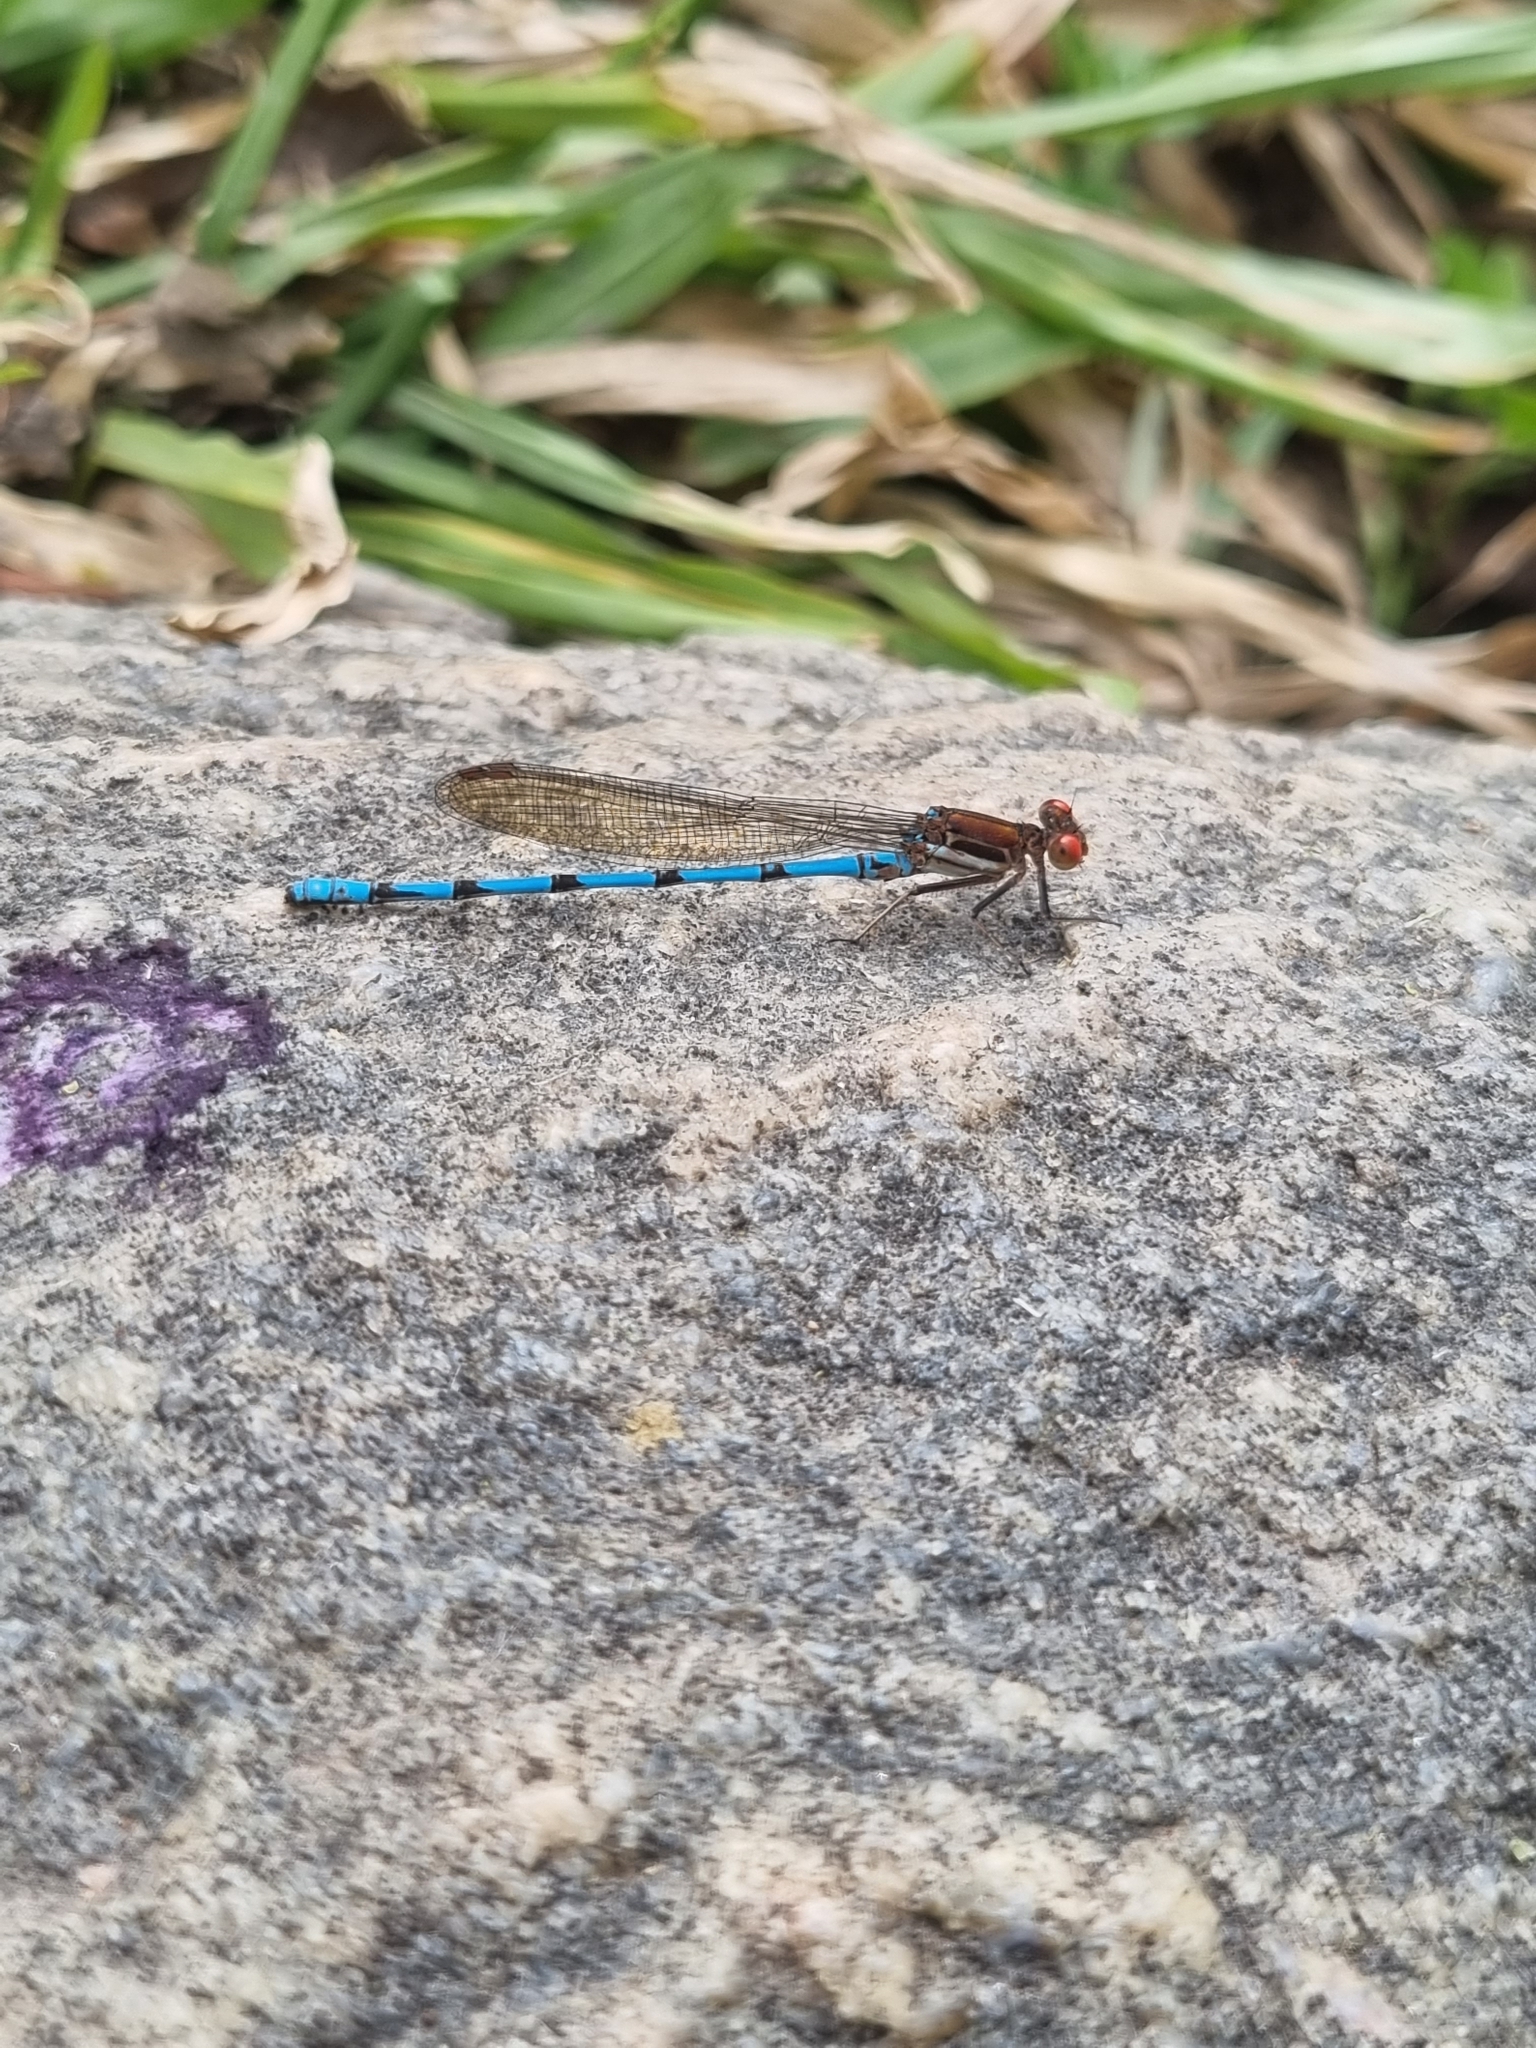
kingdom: Animalia
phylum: Arthropoda
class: Insecta
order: Odonata
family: Coenagrionidae
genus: Argia
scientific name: Argia joergenseni
